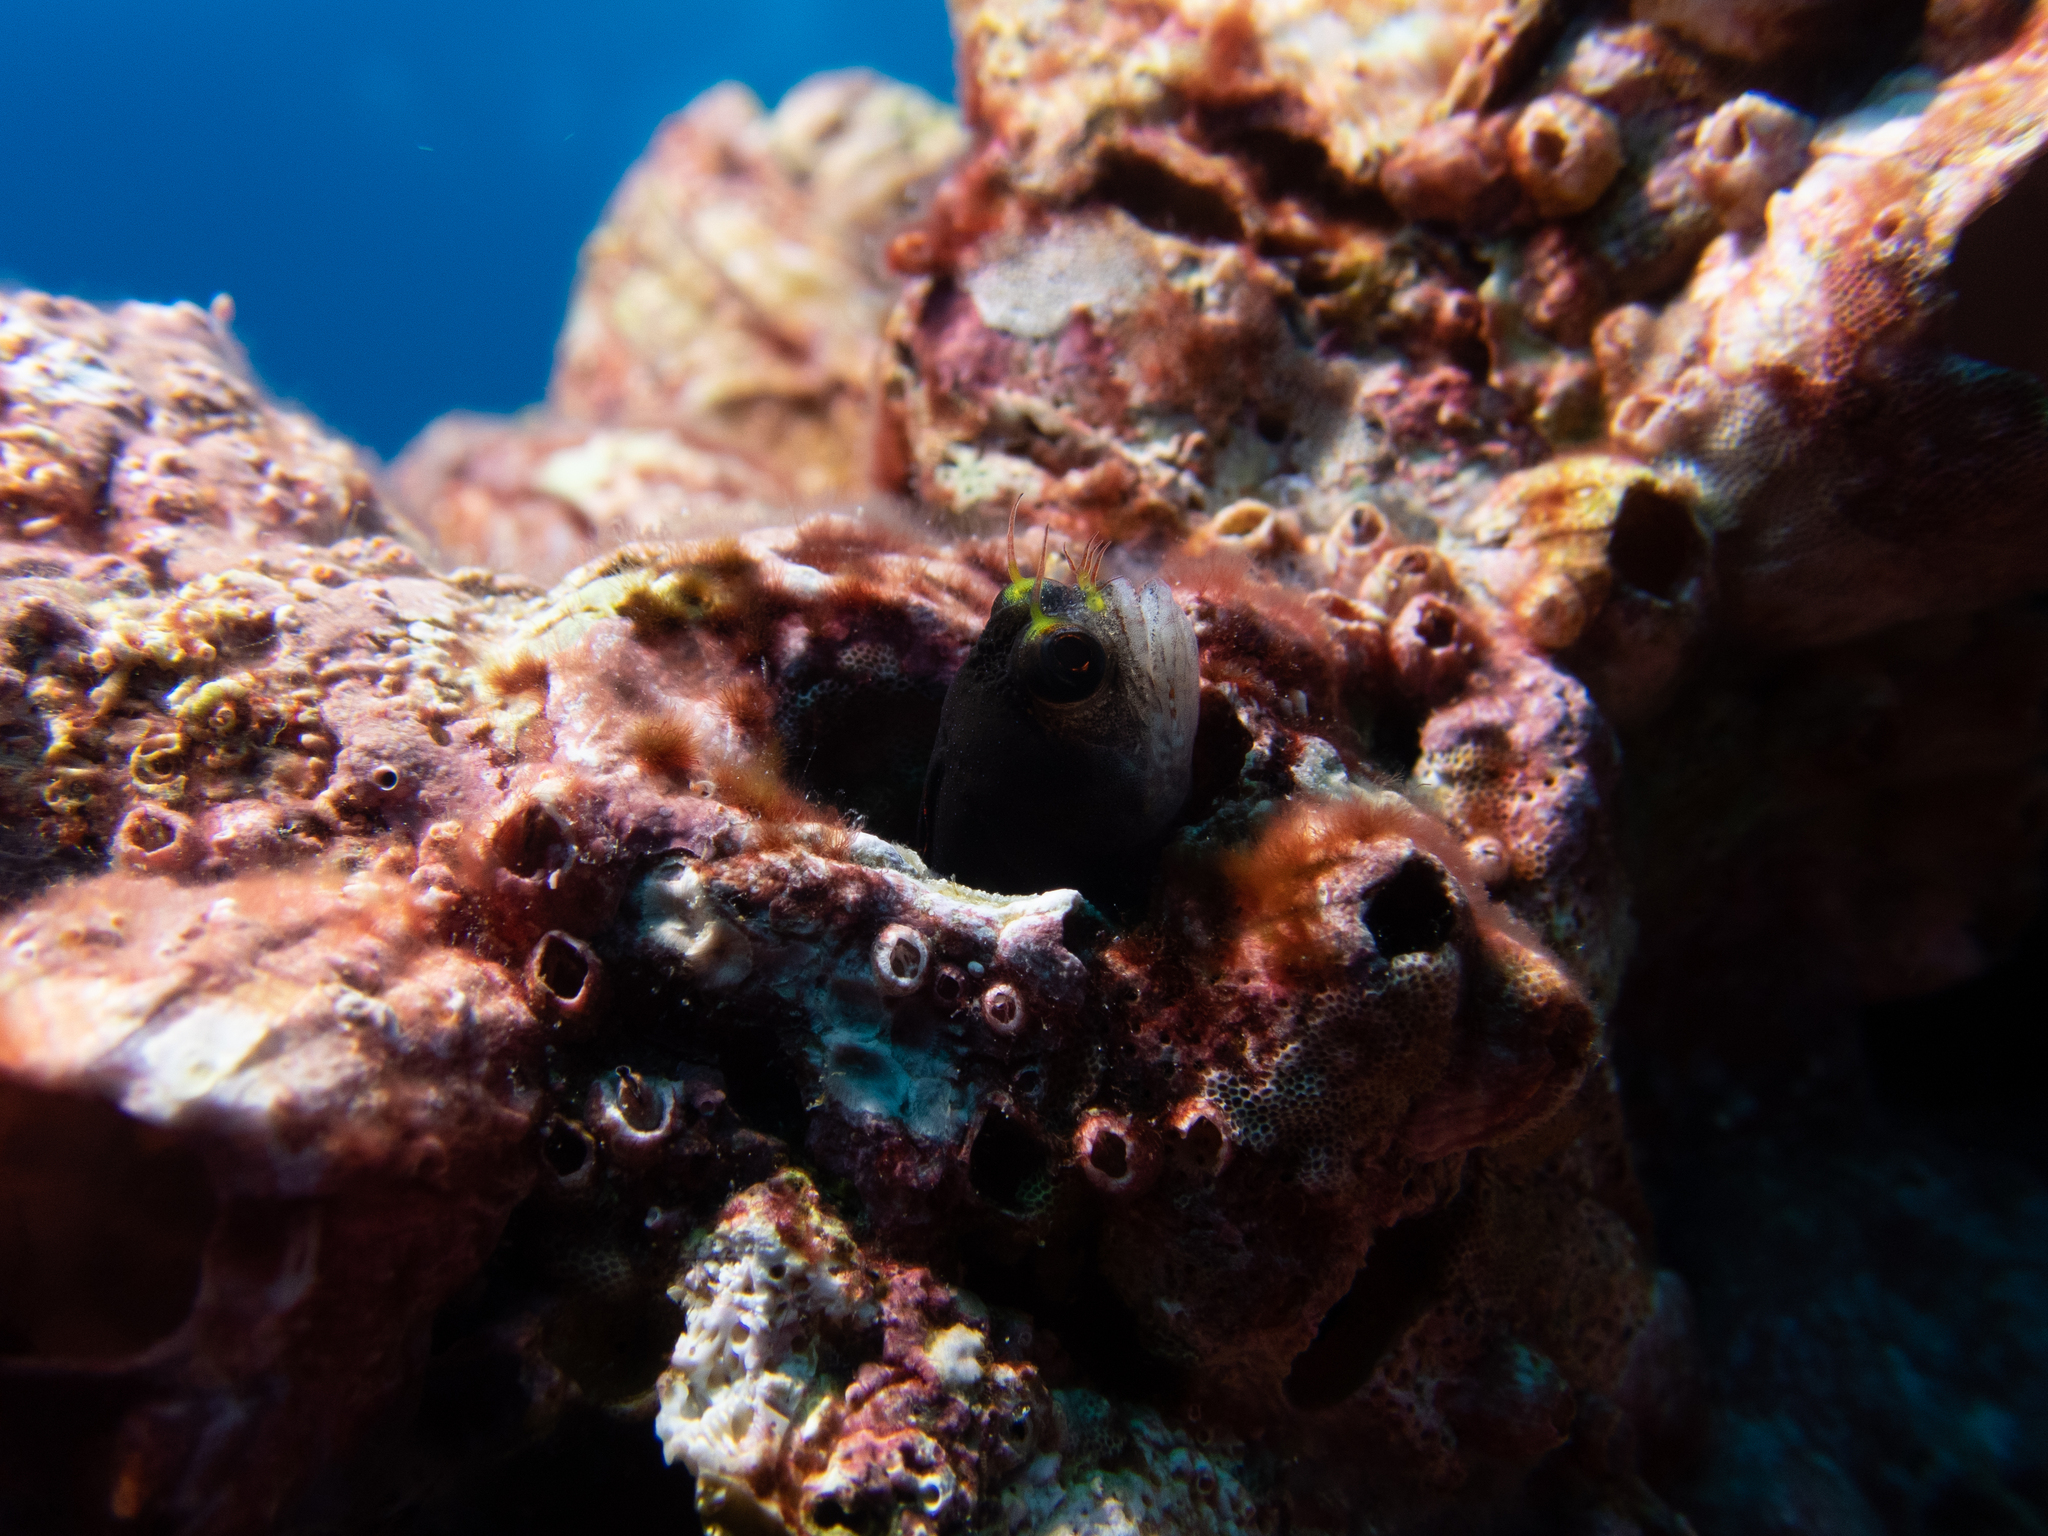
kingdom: Animalia
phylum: Chordata
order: Perciformes
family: Chaenopsidae
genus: Acanthemblemaria
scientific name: Acanthemblemaria castroi
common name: Galápagos barnacle blenny
